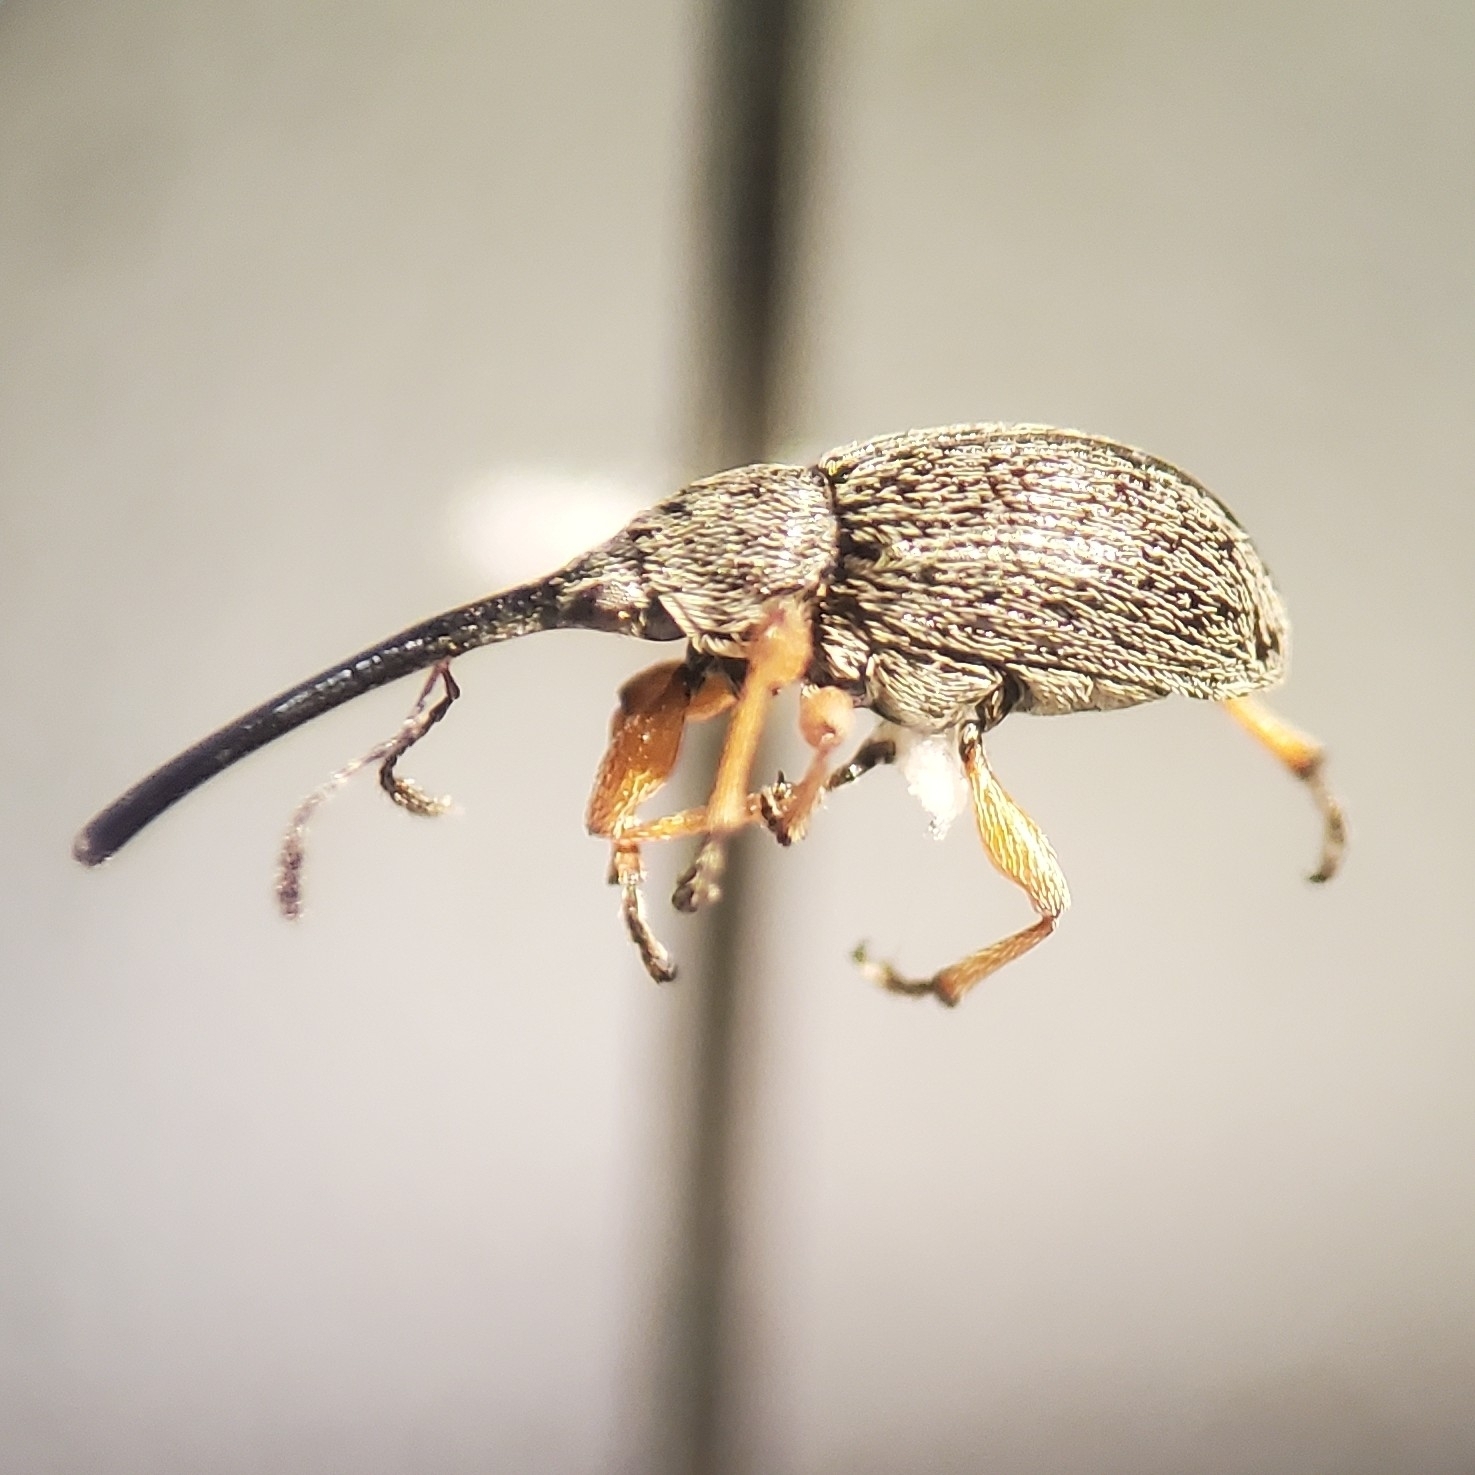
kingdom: Animalia
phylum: Arthropoda
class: Insecta
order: Coleoptera
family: Brentidae
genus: Rhopalapion
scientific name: Rhopalapion longirostre
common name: Hollyhock weevil
